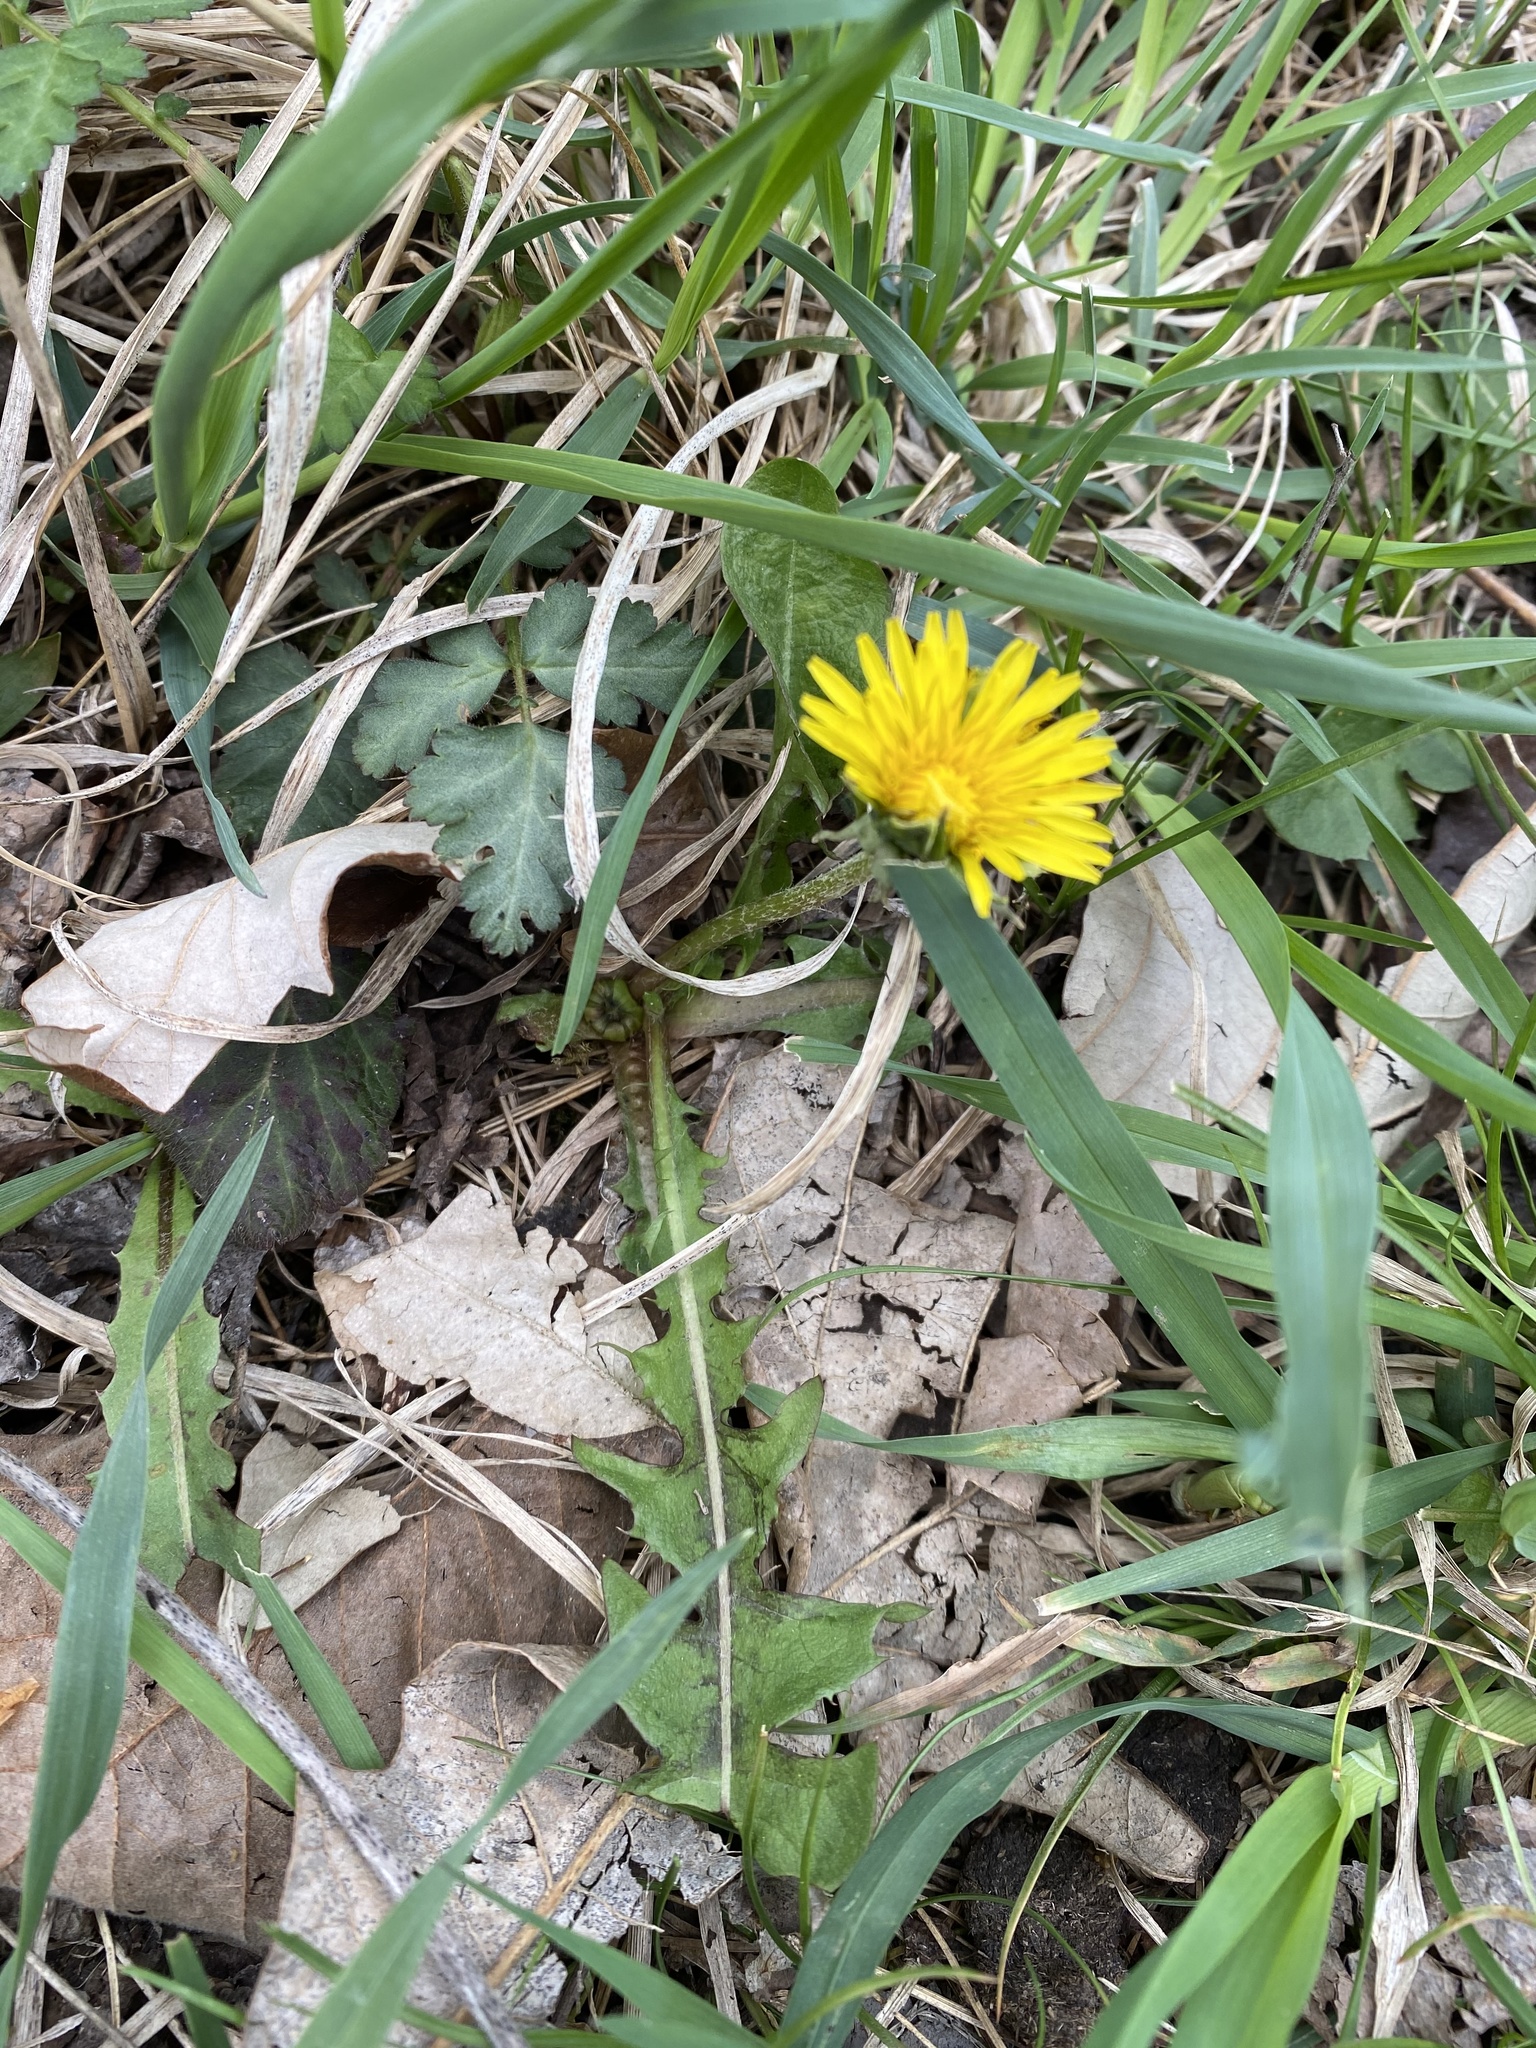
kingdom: Plantae
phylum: Tracheophyta
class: Magnoliopsida
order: Asterales
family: Asteraceae
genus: Taraxacum
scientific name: Taraxacum officinale
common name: Common dandelion
